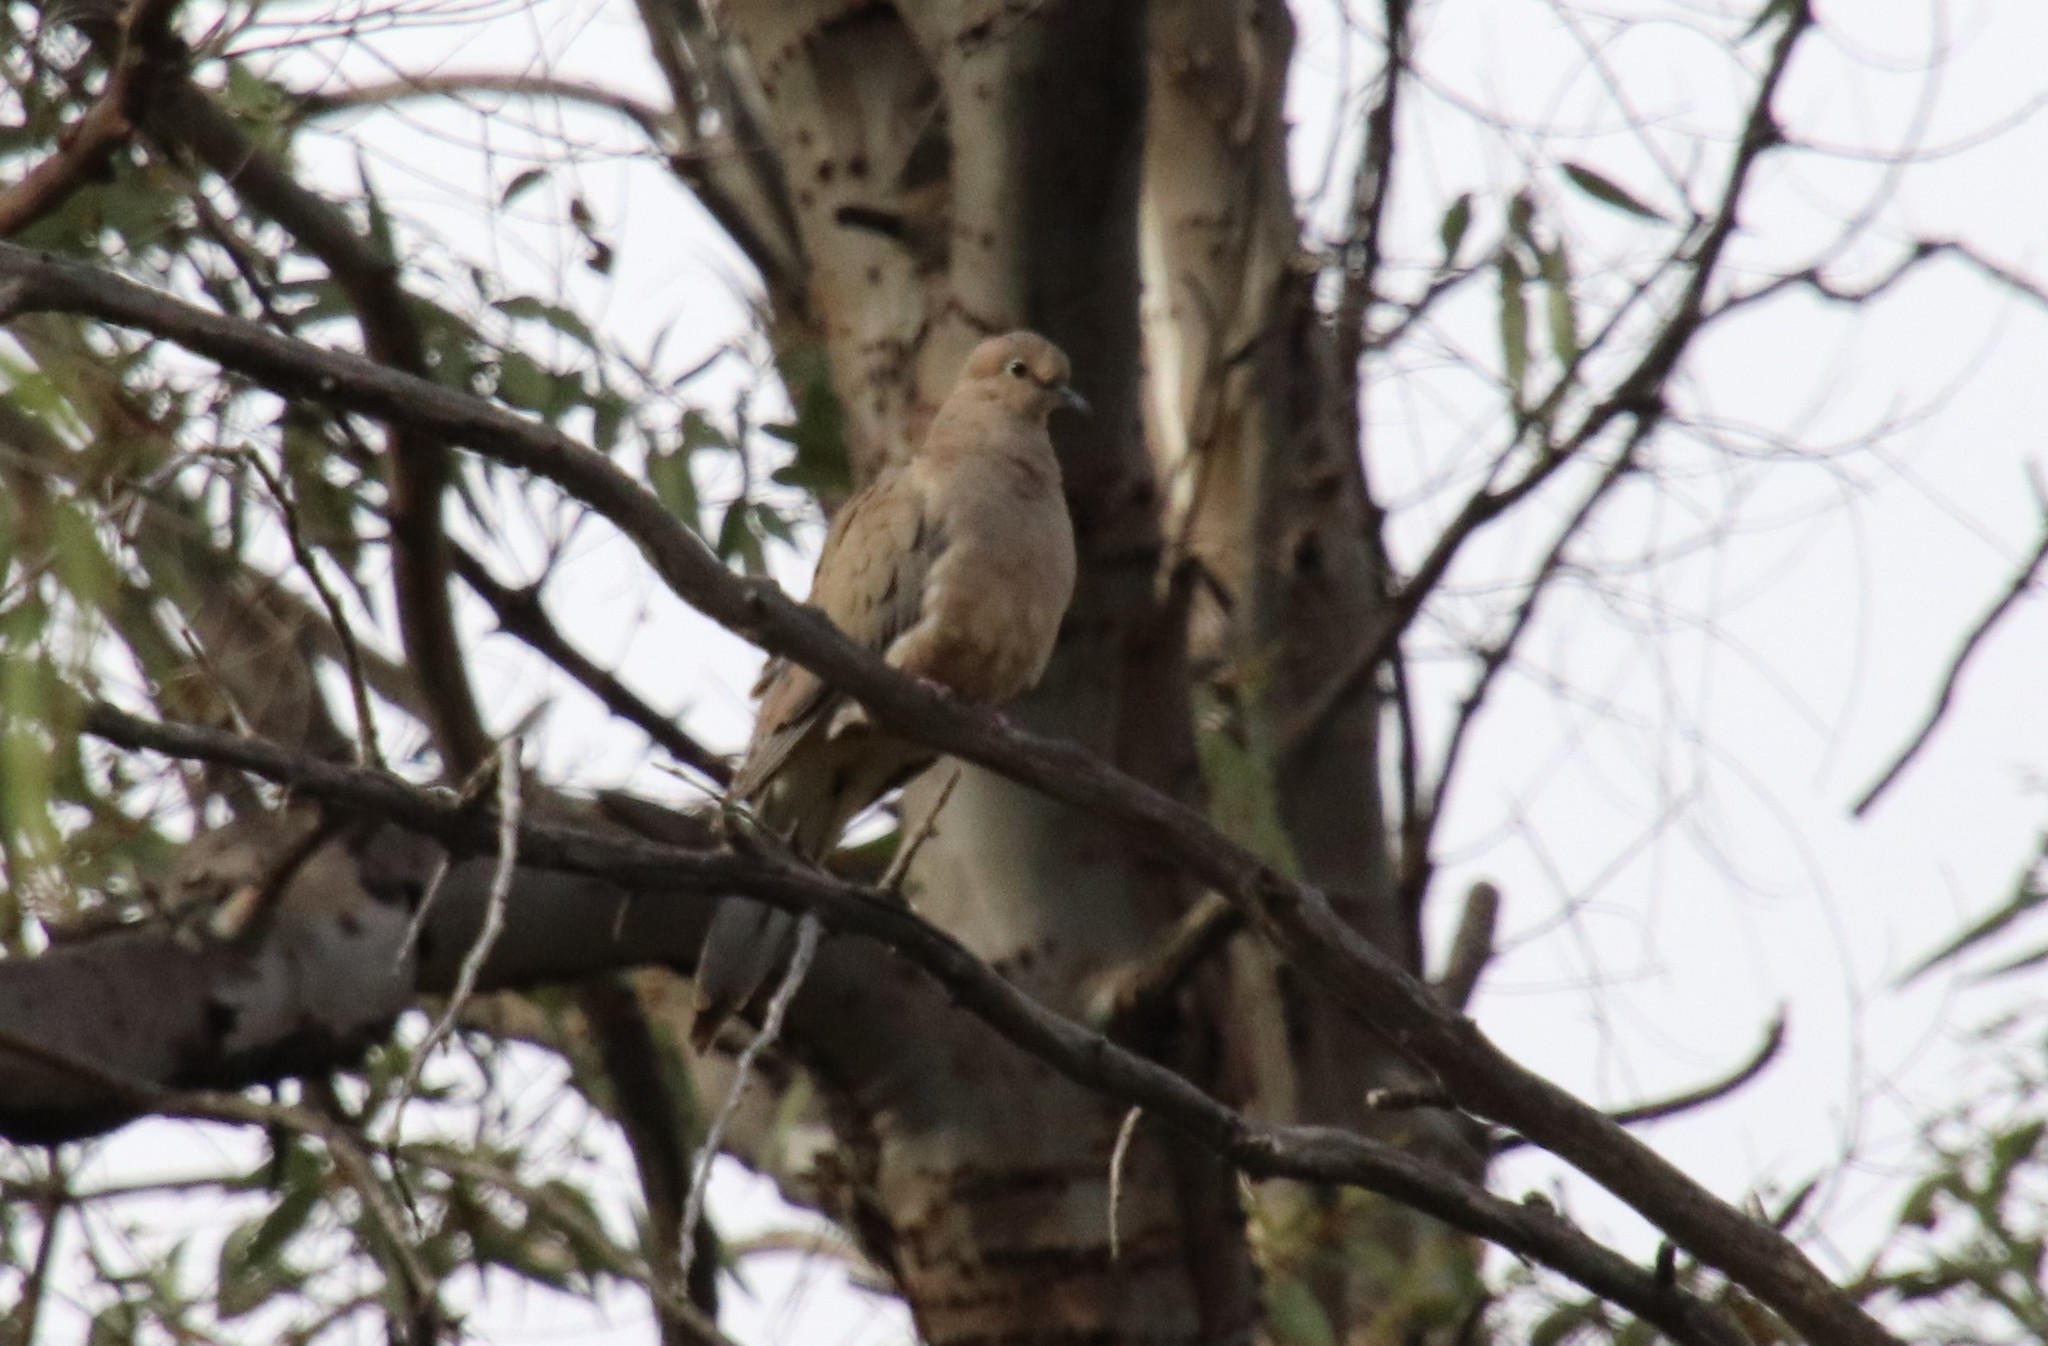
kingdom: Animalia
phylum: Chordata
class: Aves
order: Columbiformes
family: Columbidae
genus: Zenaida
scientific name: Zenaida macroura
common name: Mourning dove
